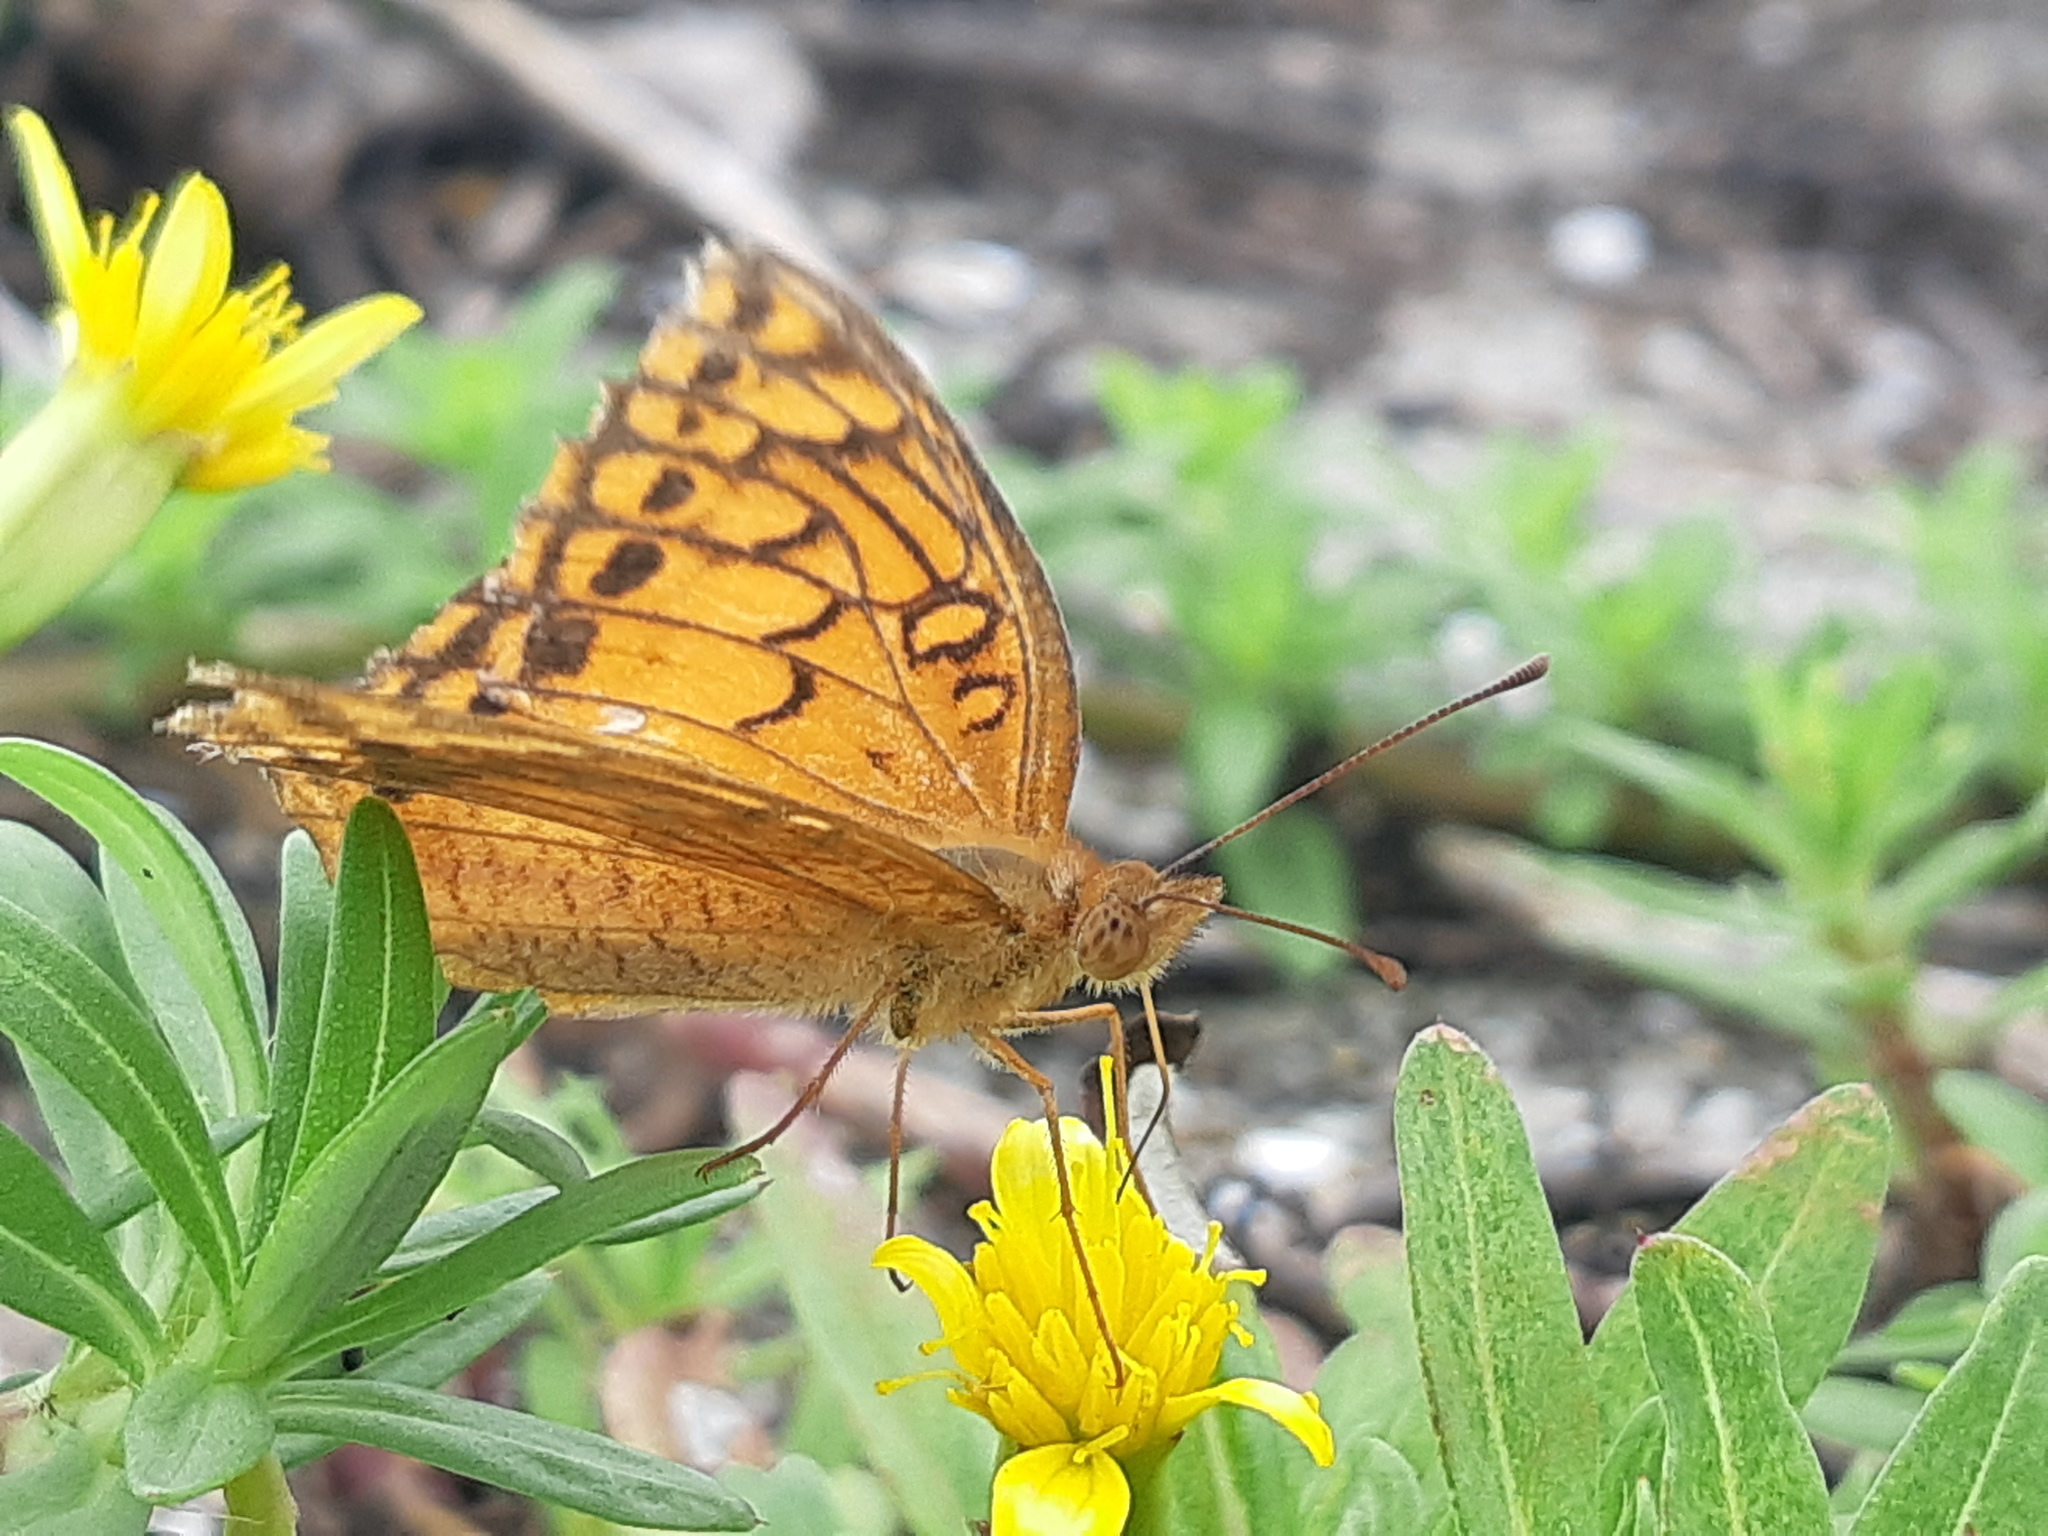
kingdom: Animalia
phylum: Arthropoda
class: Insecta
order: Lepidoptera
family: Nymphalidae
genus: Euptoieta
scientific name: Euptoieta hegesia
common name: Mexican fritillary
